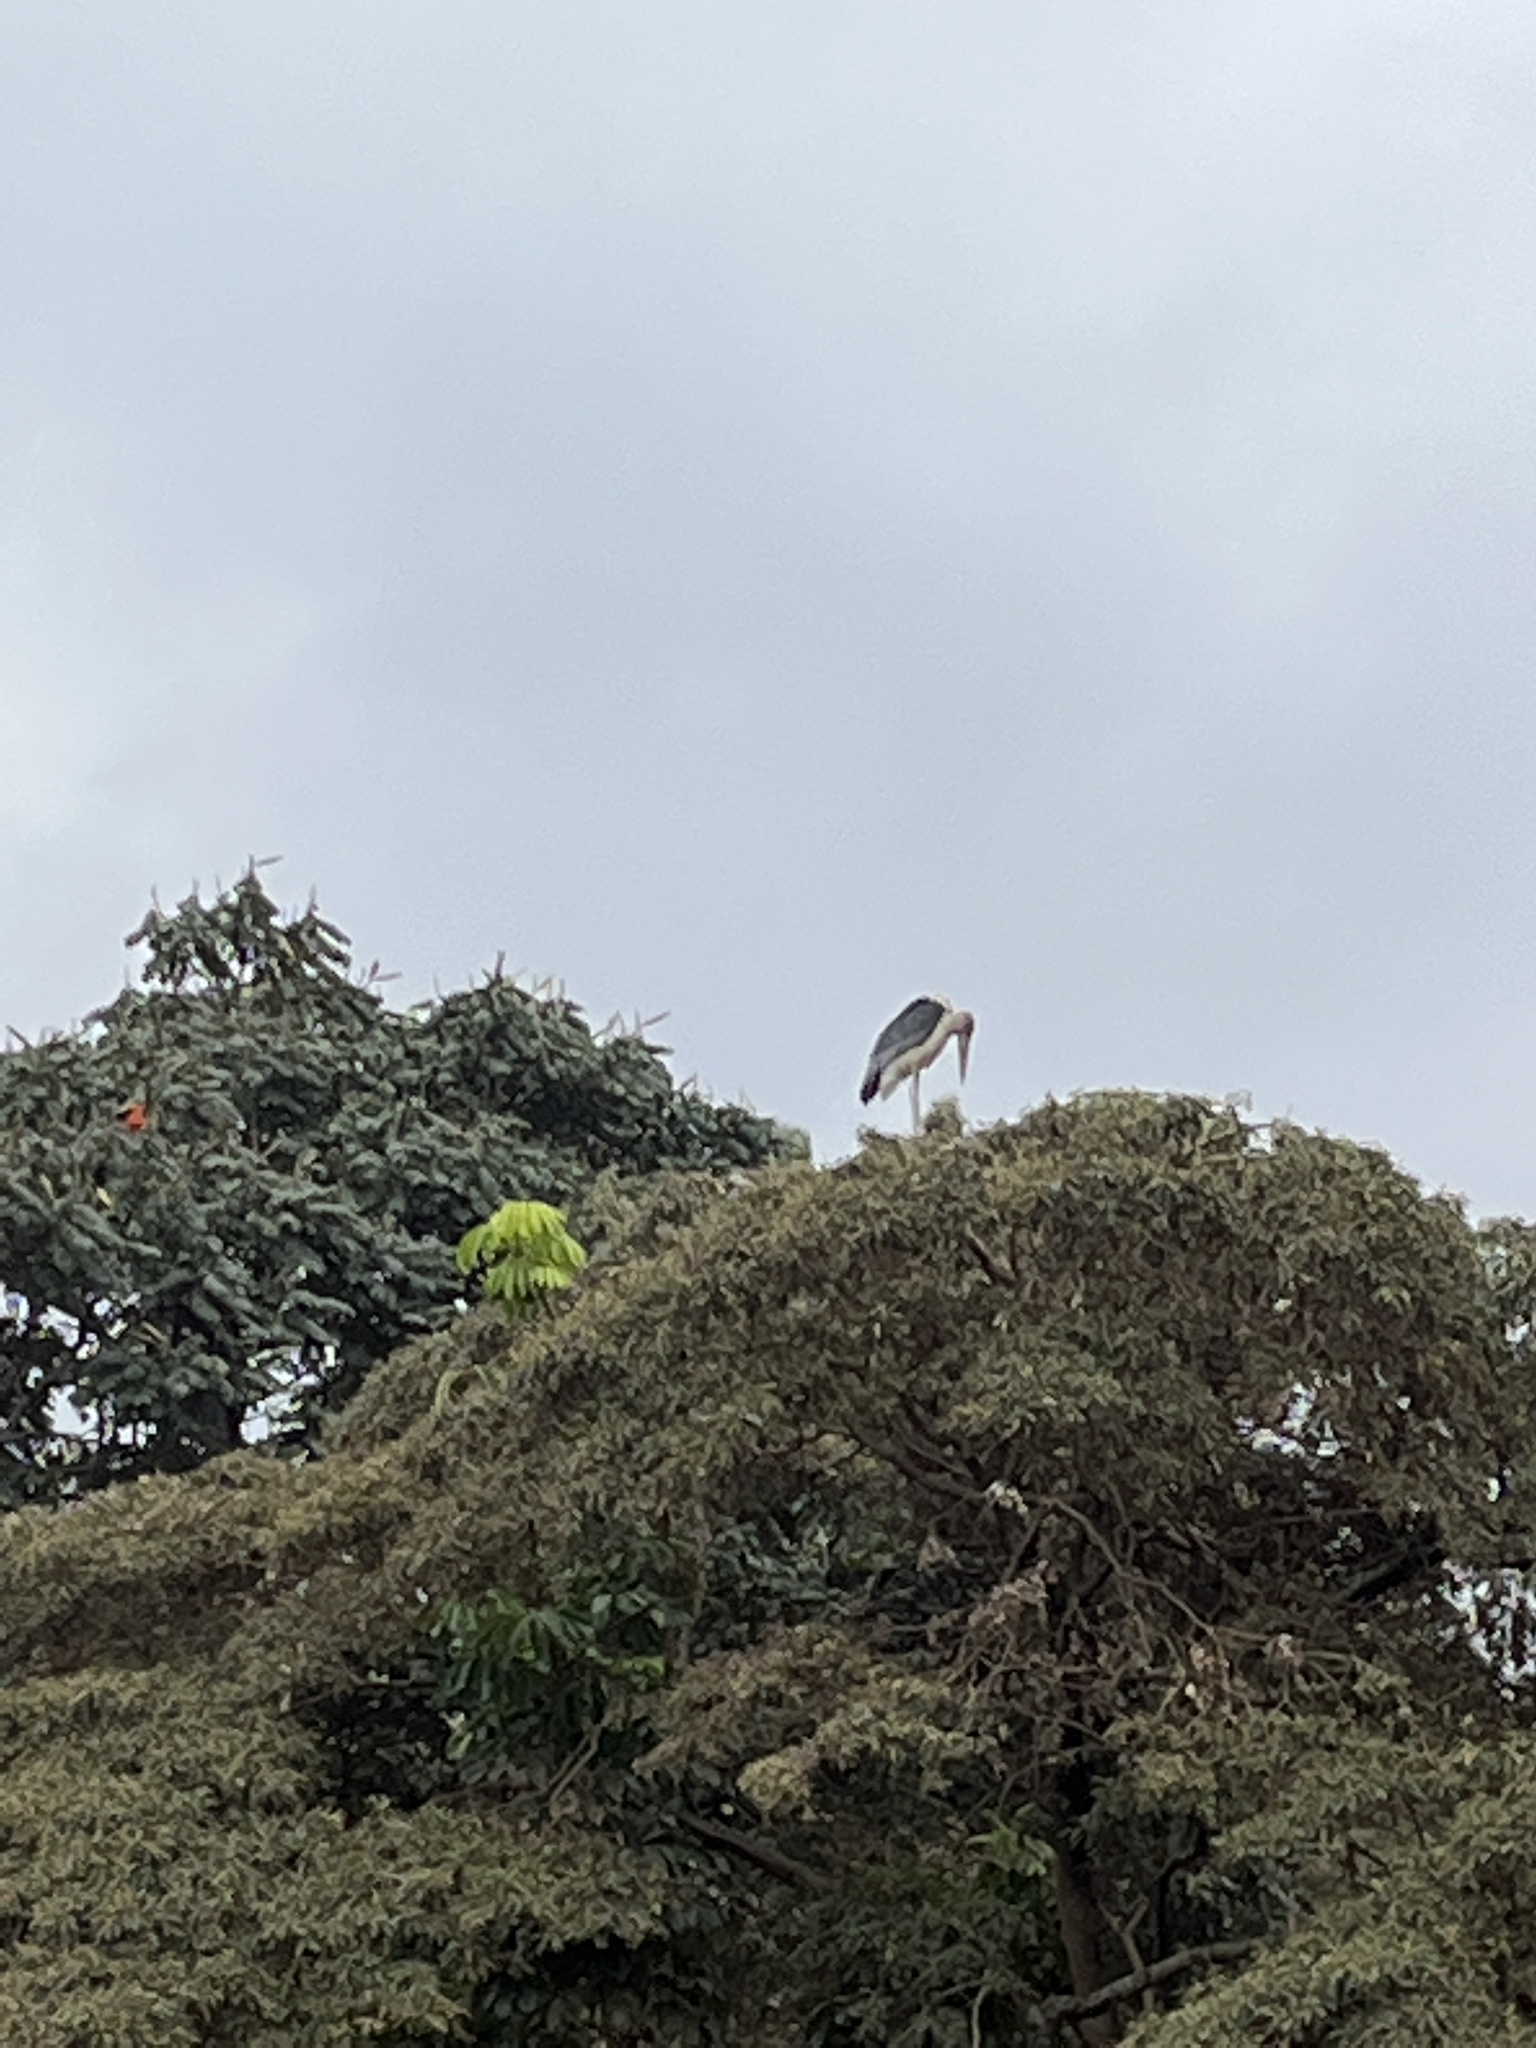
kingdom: Animalia
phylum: Chordata
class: Aves
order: Ciconiiformes
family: Ciconiidae
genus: Leptoptilos
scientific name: Leptoptilos crumenifer
